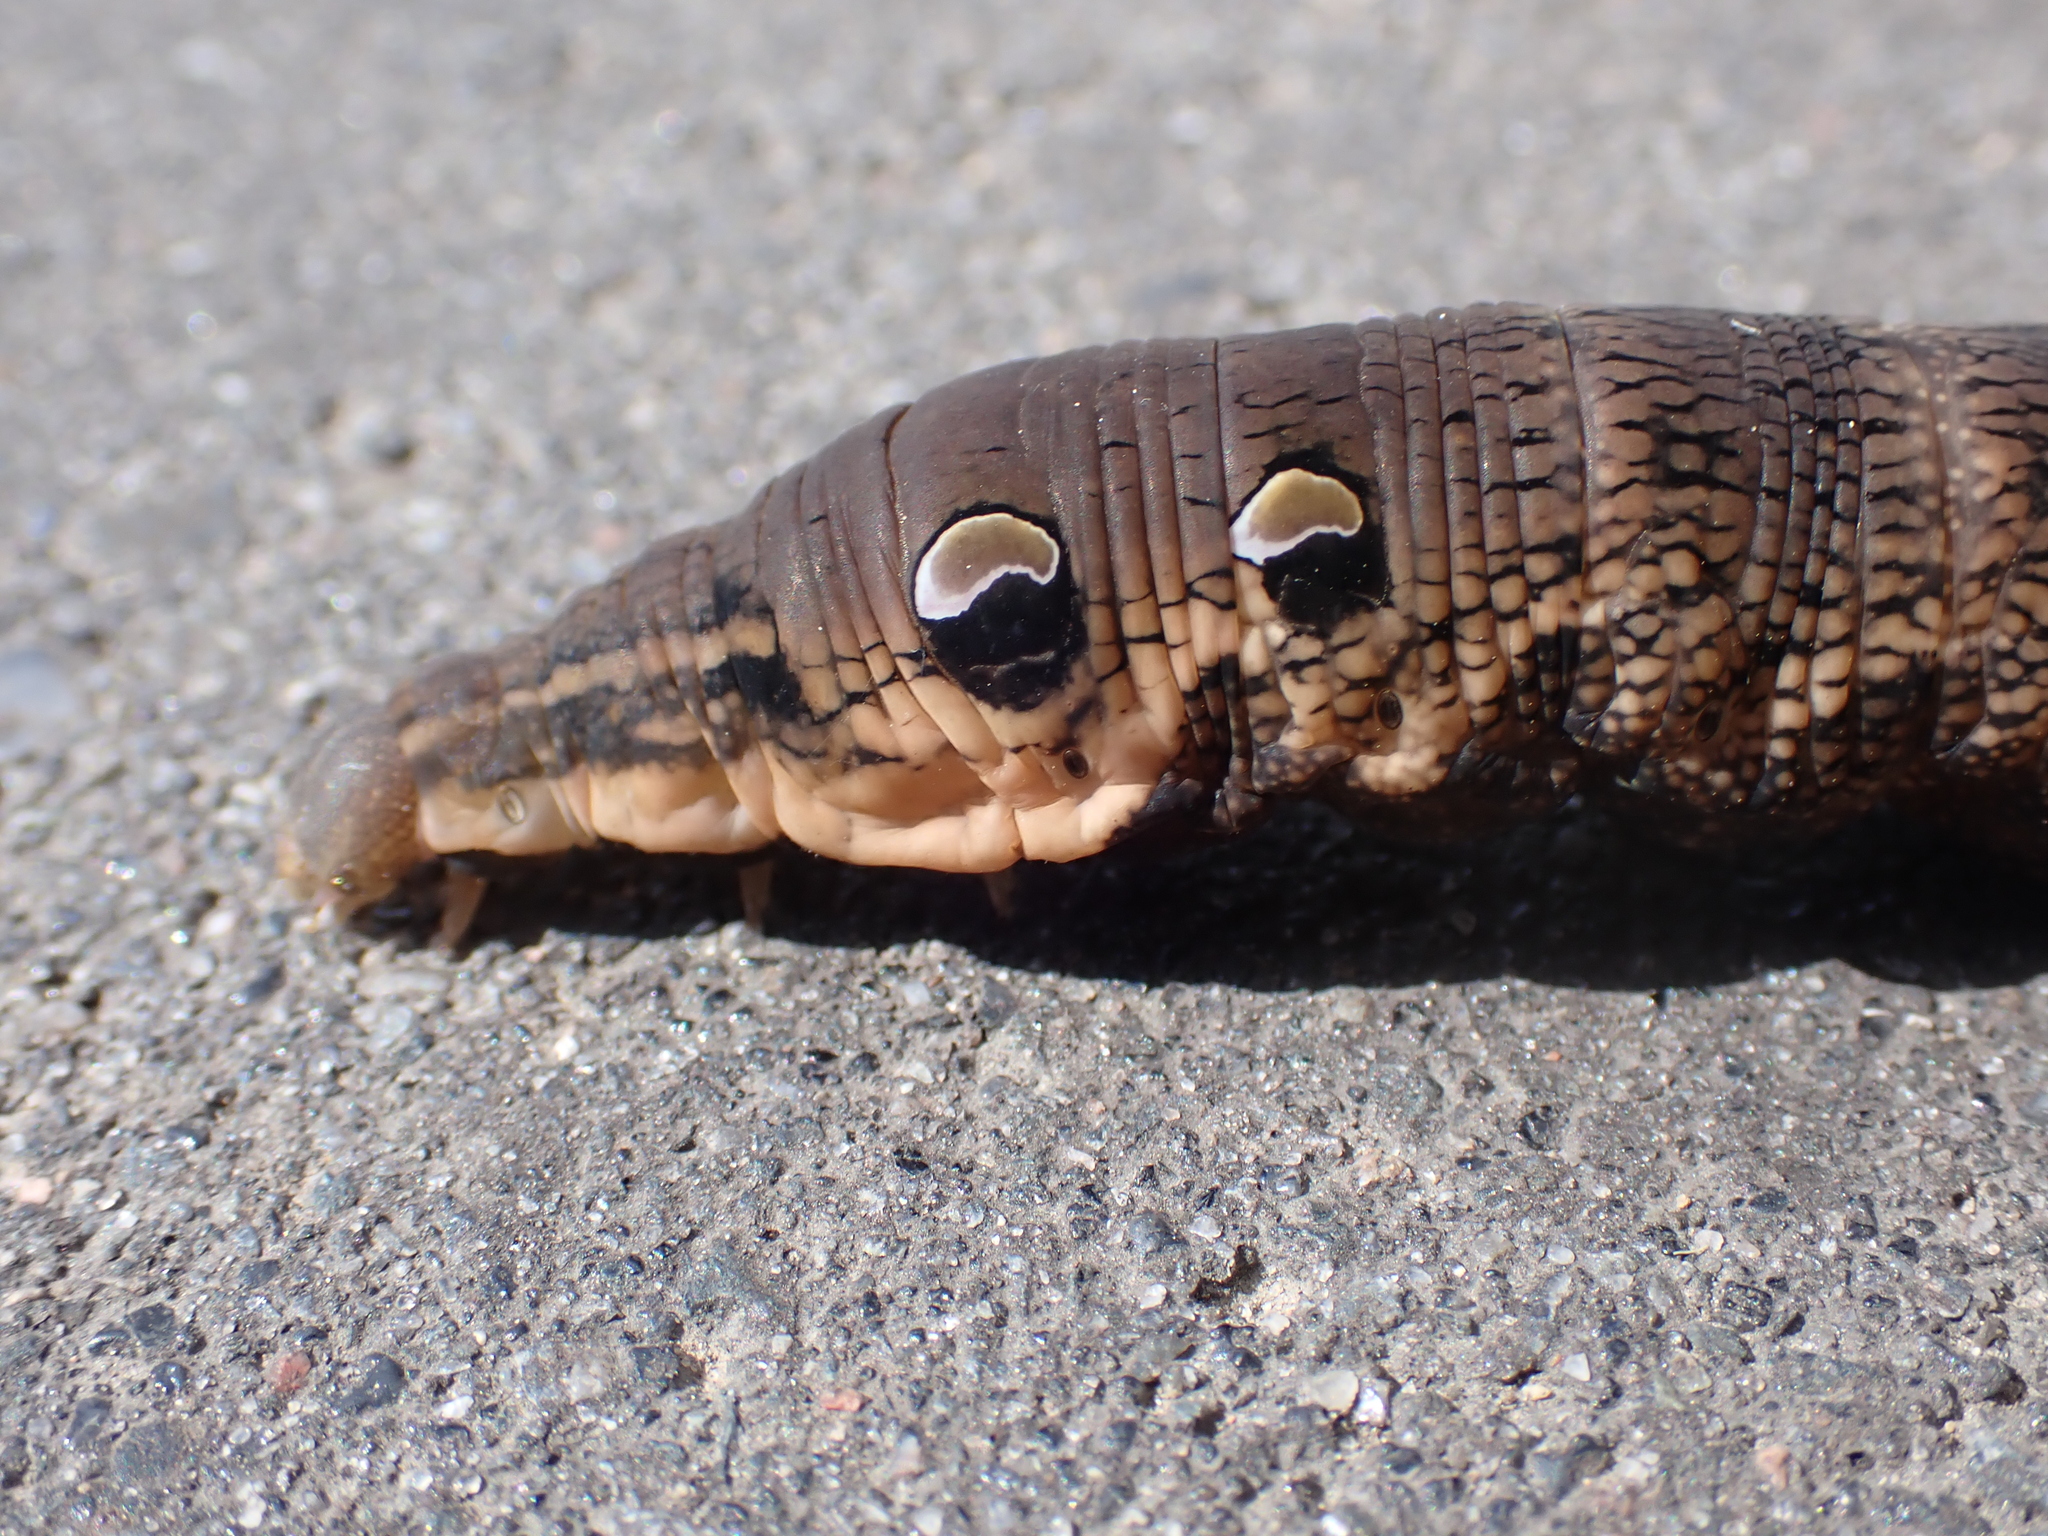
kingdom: Animalia
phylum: Arthropoda
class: Insecta
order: Lepidoptera
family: Sphingidae
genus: Deilephila
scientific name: Deilephila elpenor
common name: Elephant hawk-moth
